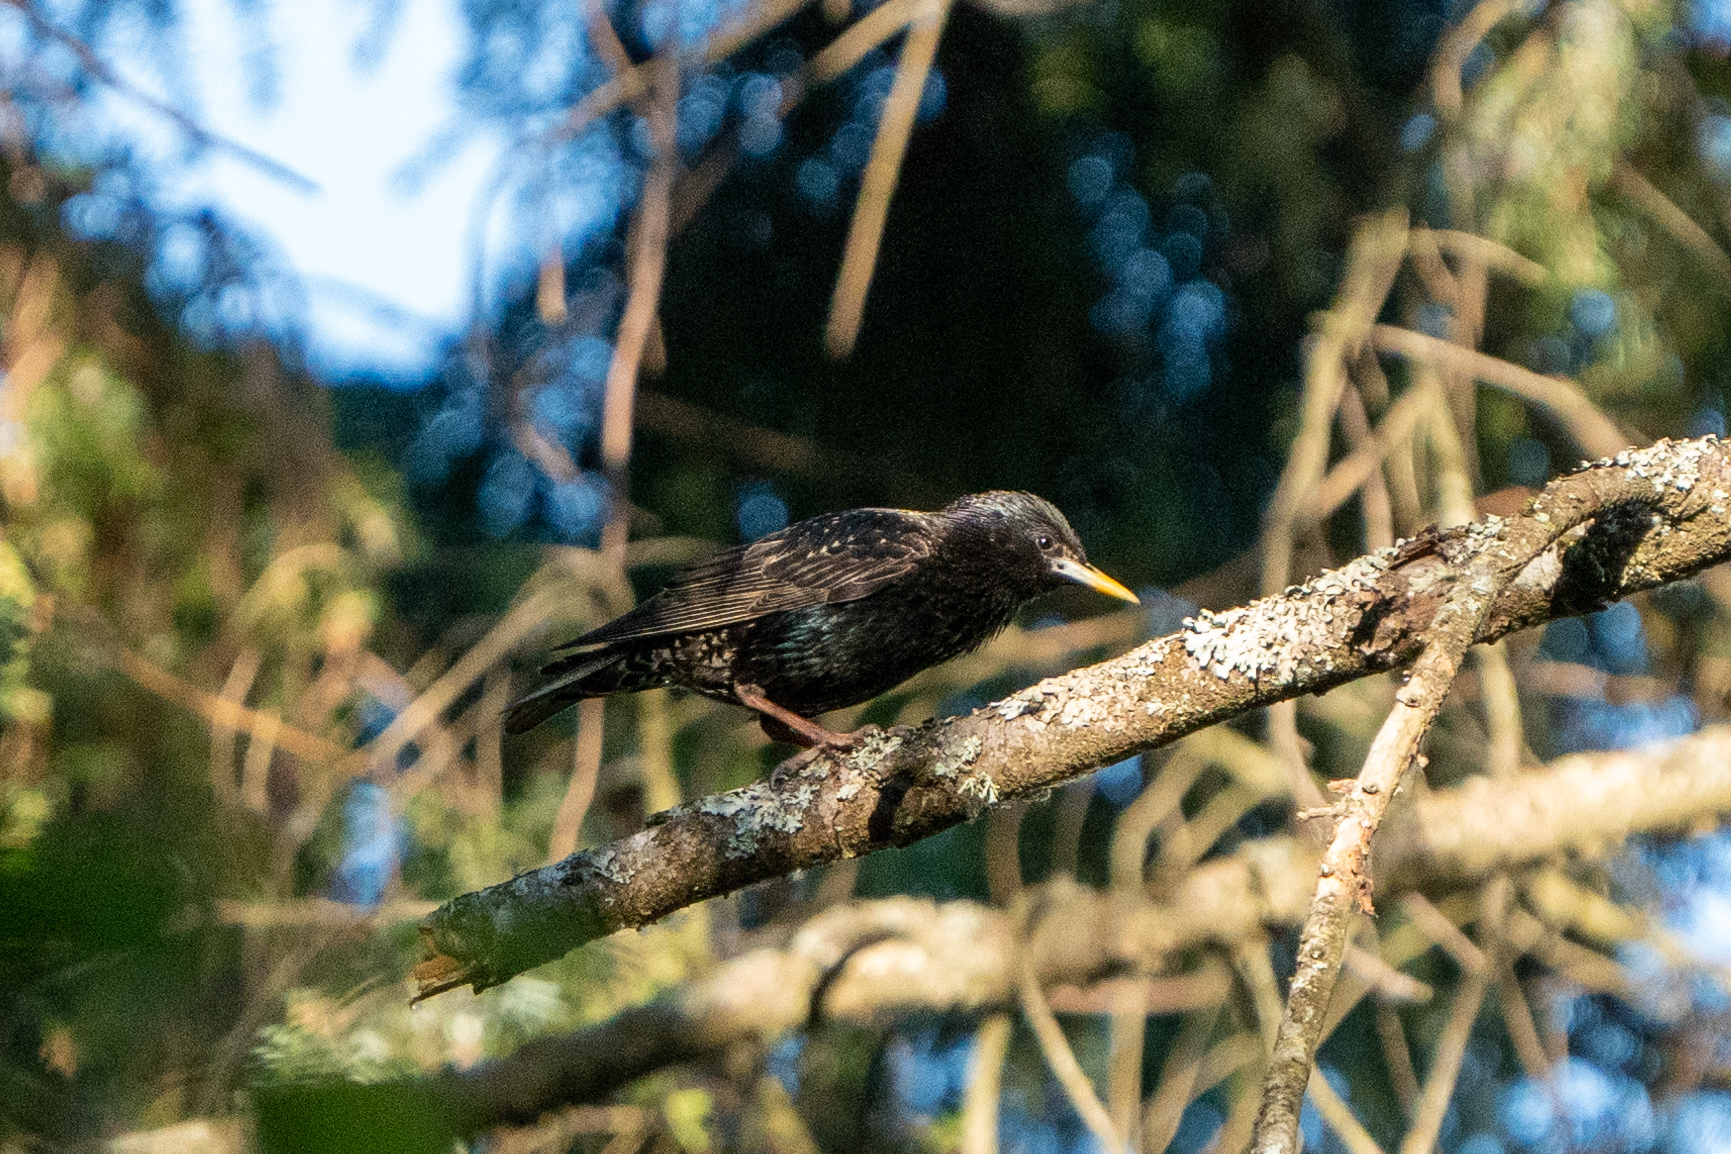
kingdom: Animalia
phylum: Chordata
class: Aves
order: Passeriformes
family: Sturnidae
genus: Sturnus
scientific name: Sturnus vulgaris
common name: Common starling
